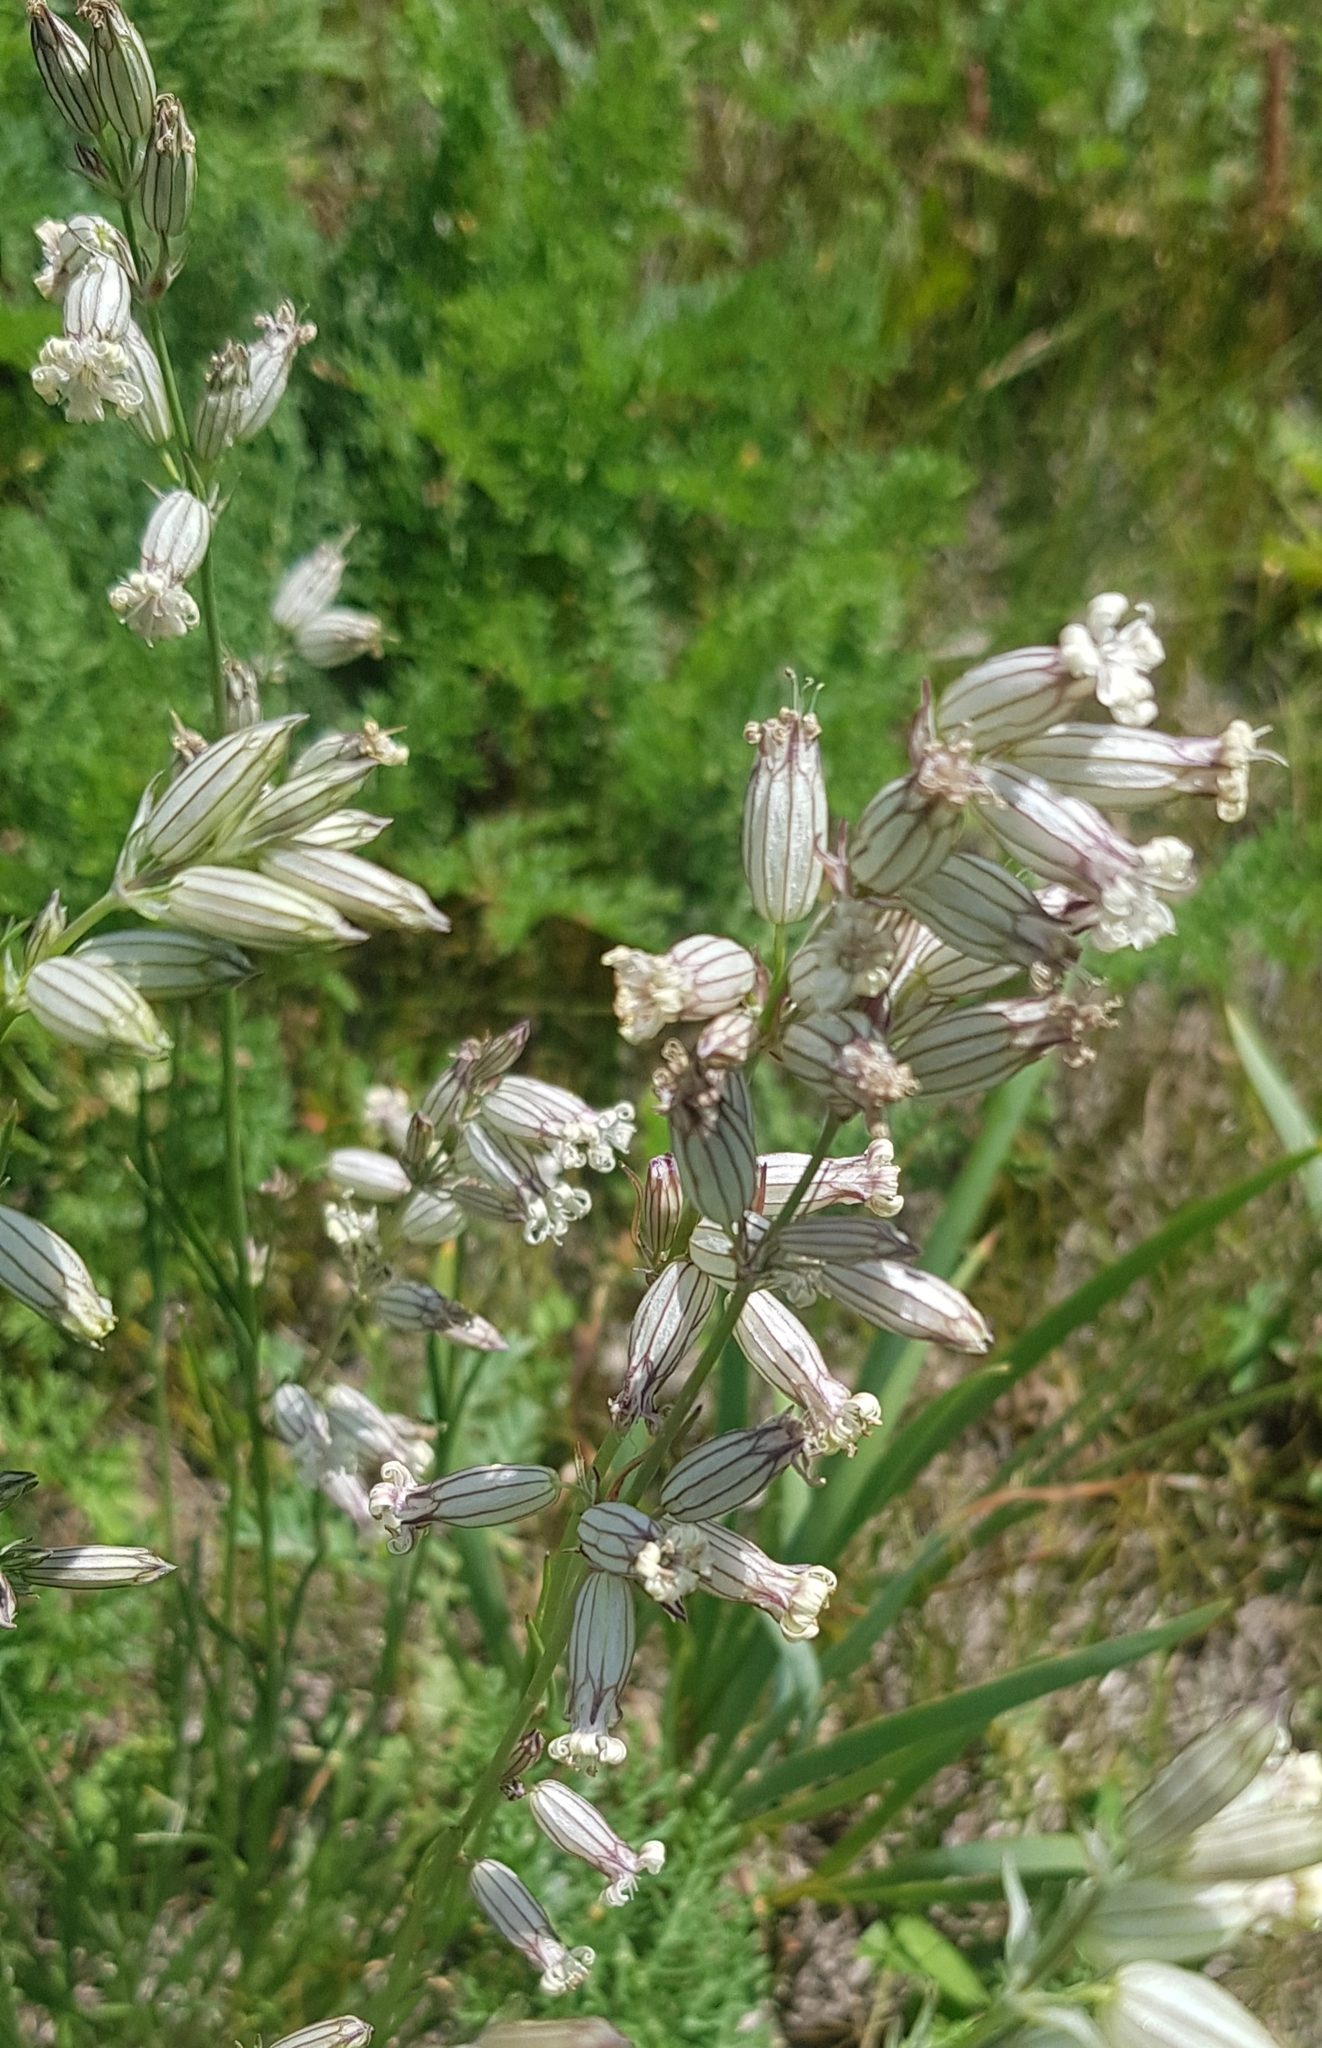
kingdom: Plantae
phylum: Tracheophyta
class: Magnoliopsida
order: Caryophyllales
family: Caryophyllaceae
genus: Silene
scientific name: Silene amoena
